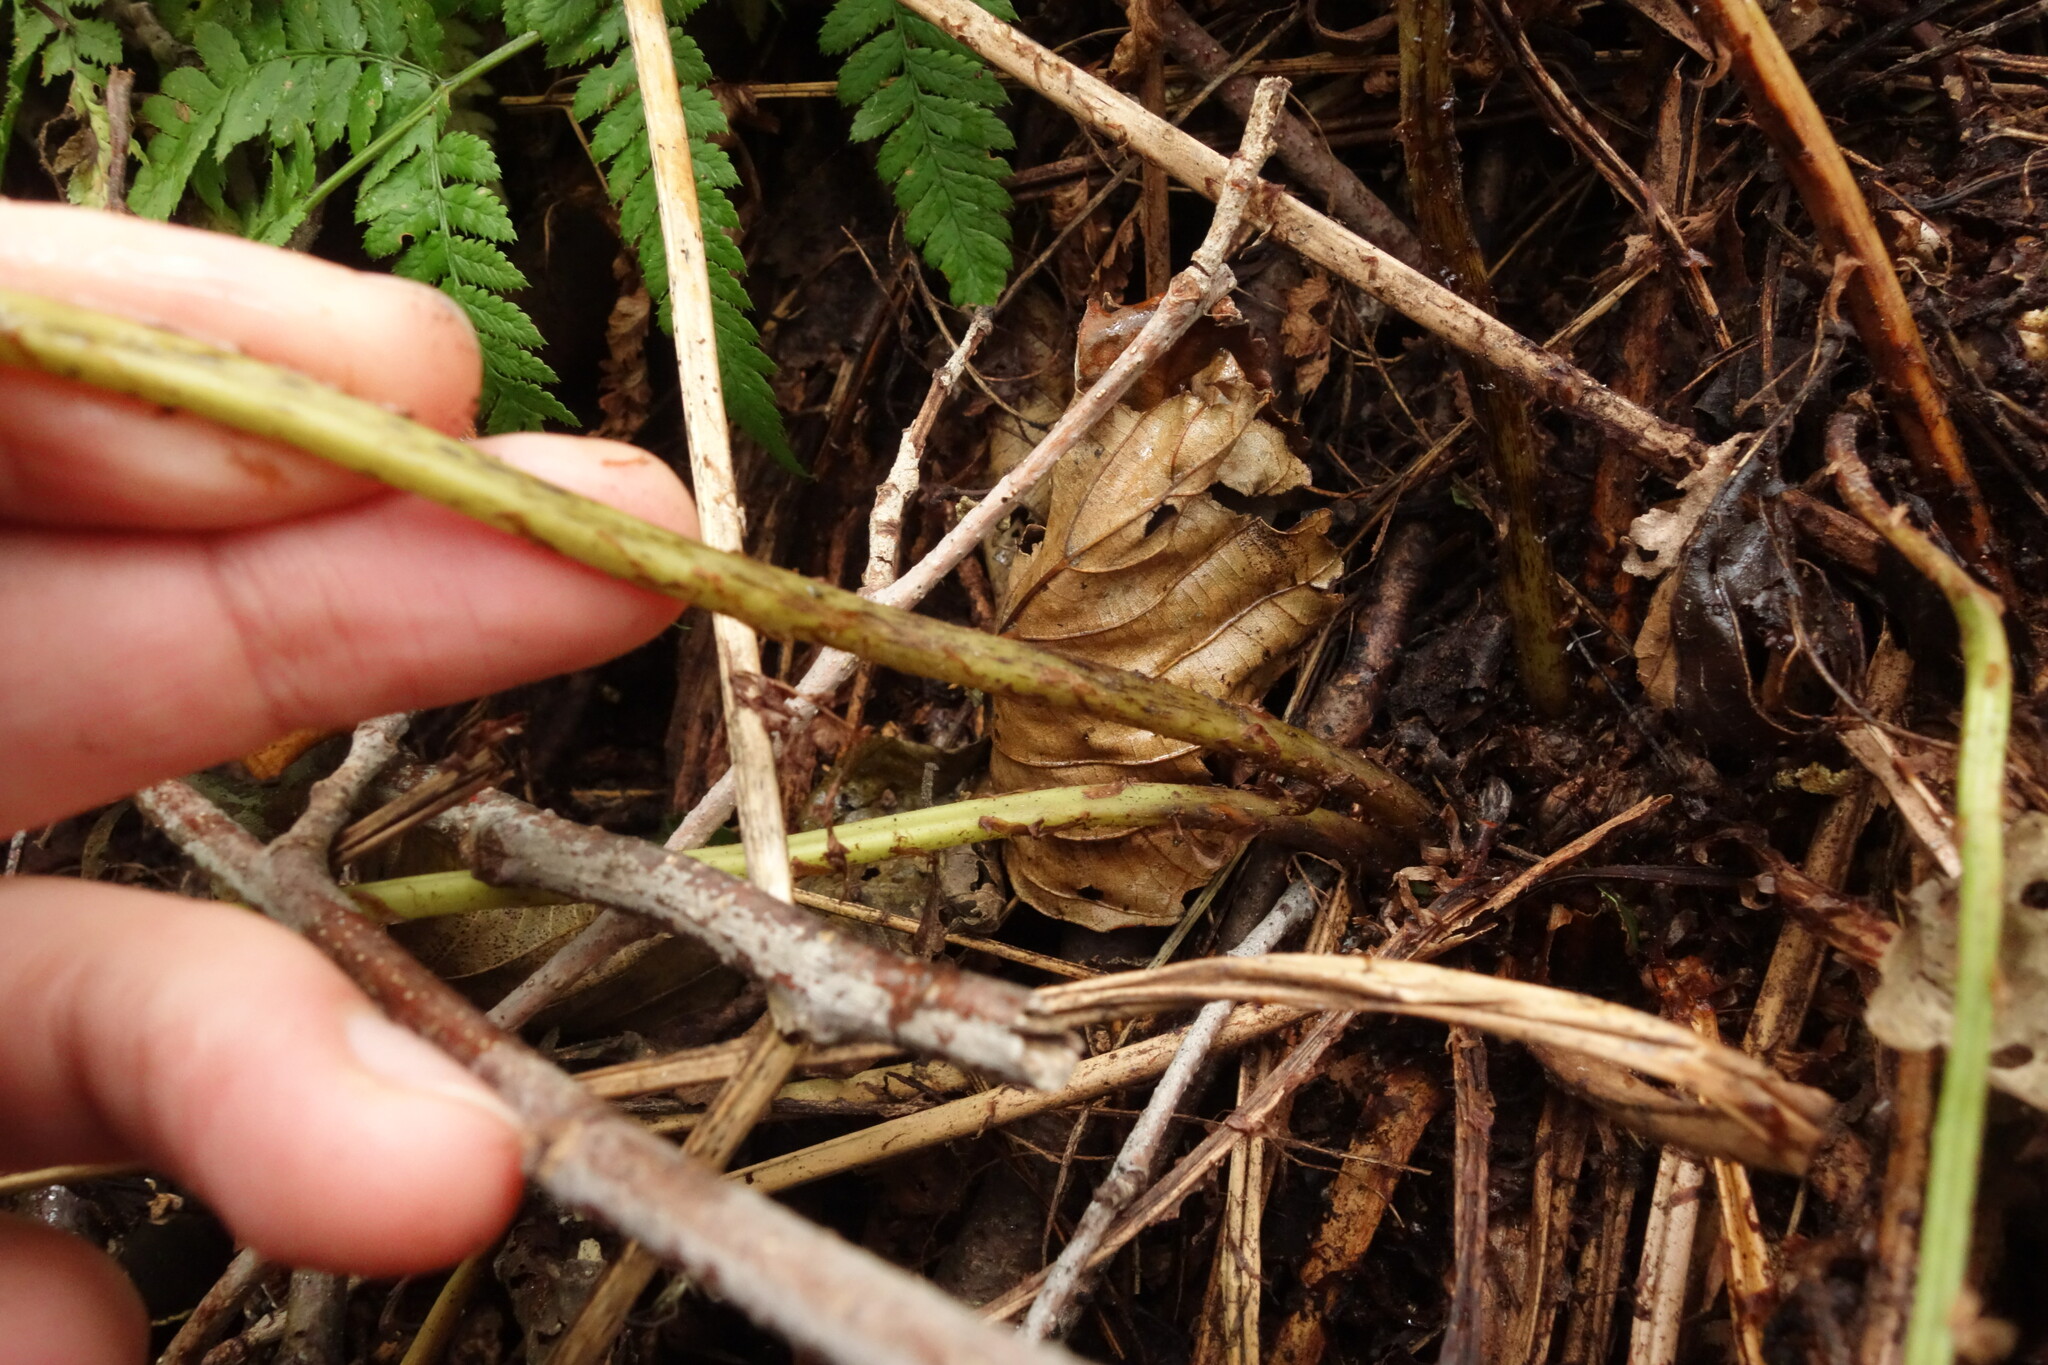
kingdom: Plantae
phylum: Tracheophyta
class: Polypodiopsida
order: Polypodiales
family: Athyriaceae
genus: Athyrium
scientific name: Athyrium filix-femina
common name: Lady fern
